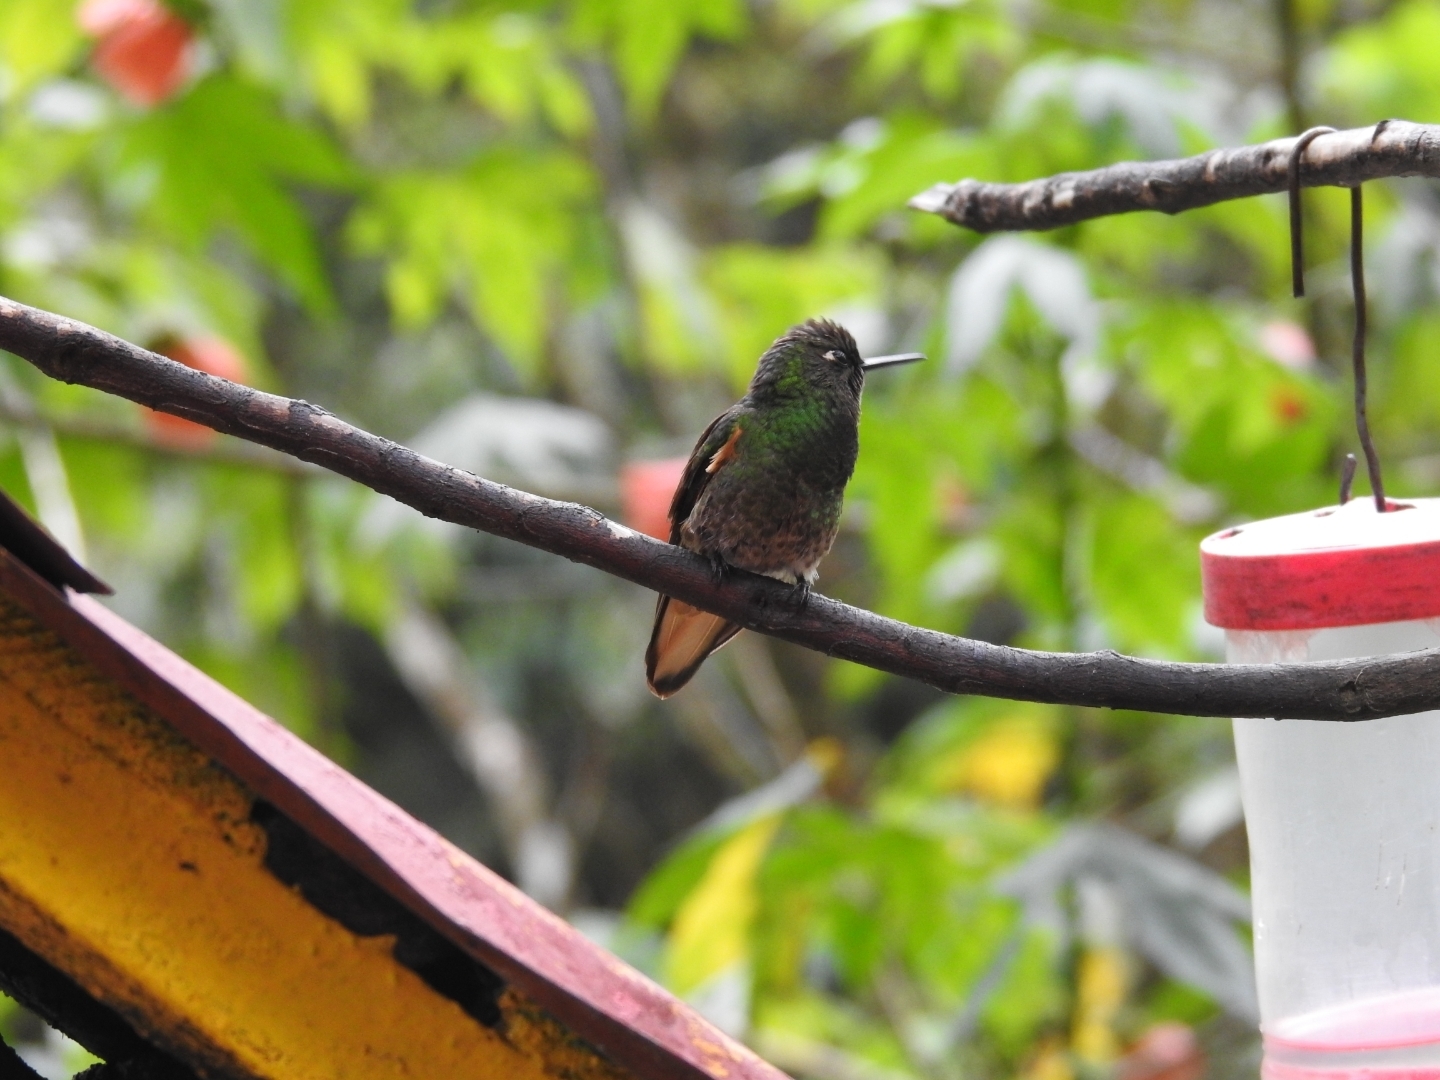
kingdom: Animalia
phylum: Chordata
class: Aves
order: Apodiformes
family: Trochilidae
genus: Boissonneaua
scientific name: Boissonneaua flavescens
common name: Buff-tailed coronet
